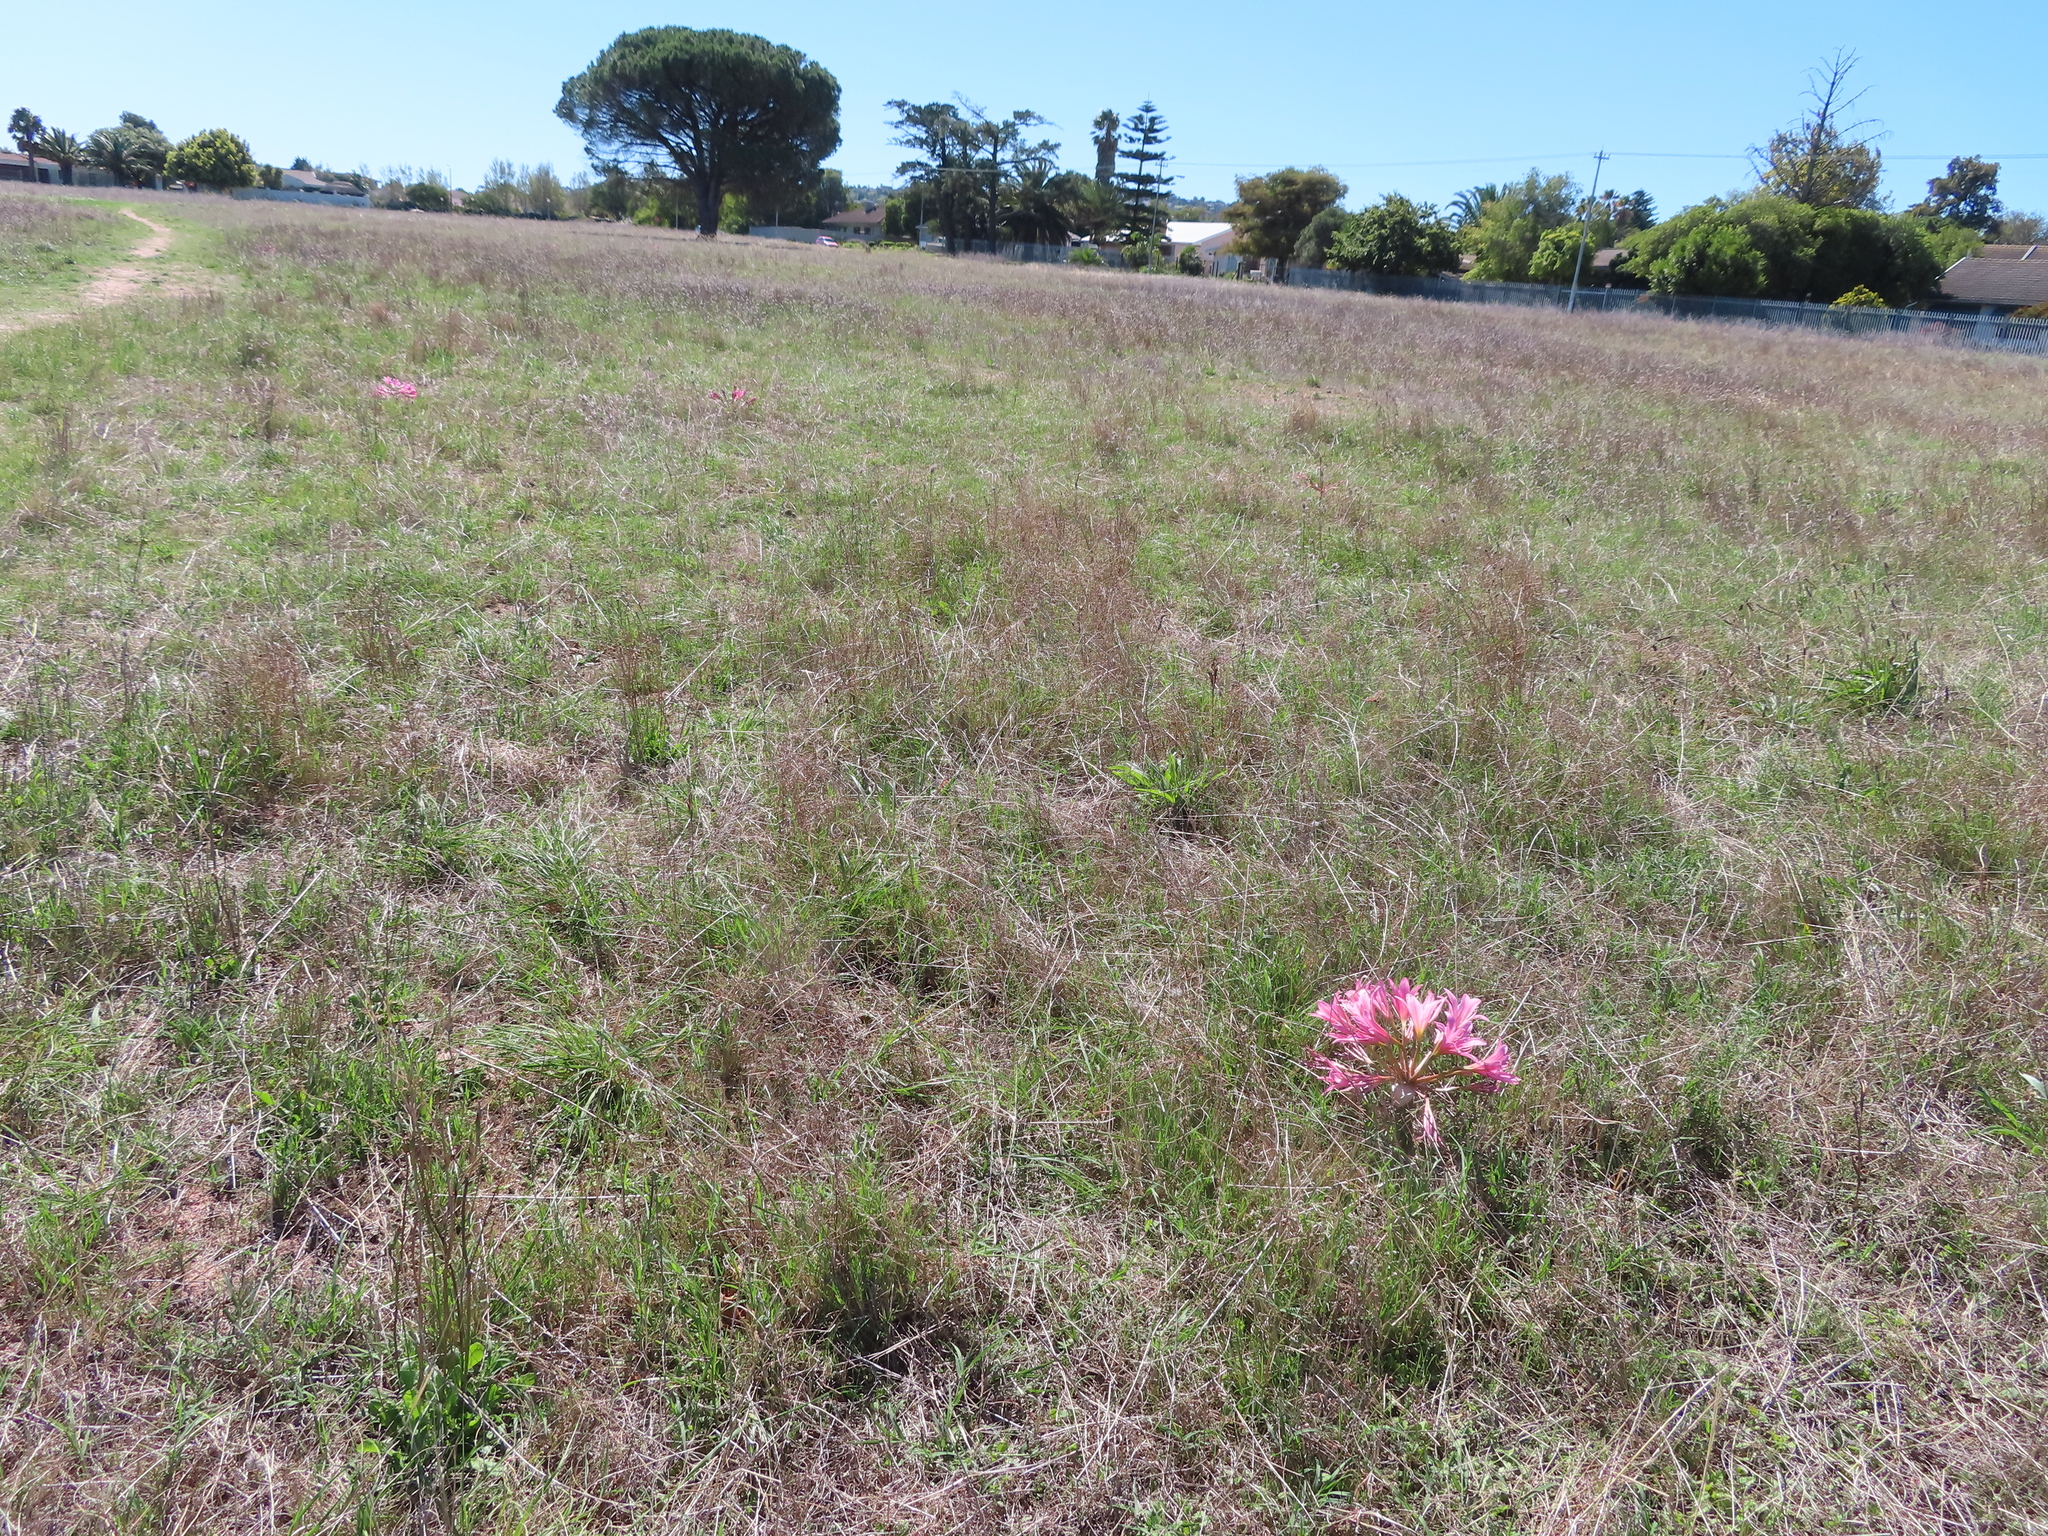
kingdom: Plantae
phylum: Tracheophyta
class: Liliopsida
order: Asparagales
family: Amaryllidaceae
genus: Ammocharis
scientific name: Ammocharis longifolia
